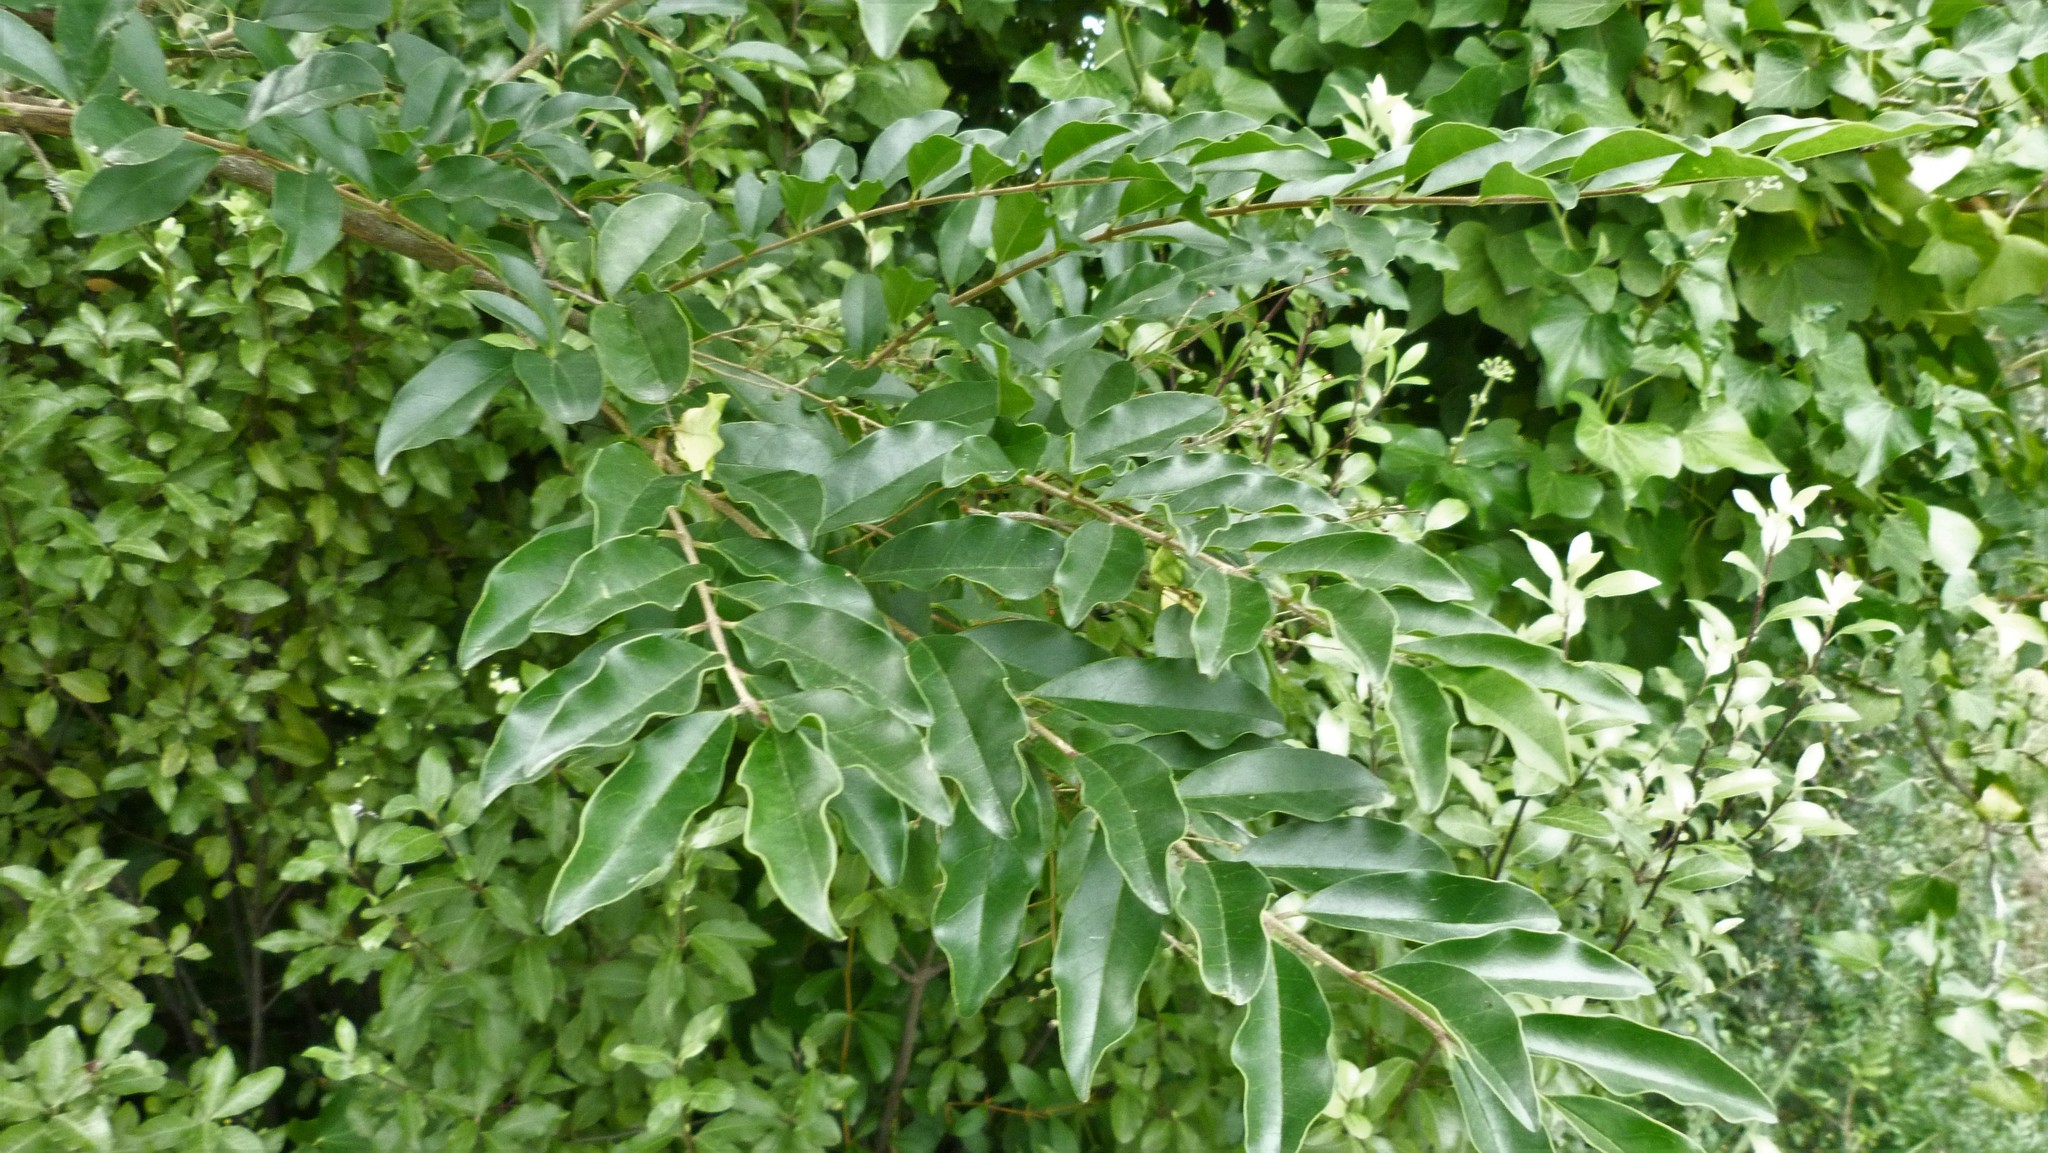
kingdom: Plantae
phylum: Tracheophyta
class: Magnoliopsida
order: Lamiales
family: Oleaceae
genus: Ligustrum
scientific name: Ligustrum sinense
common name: Chinese privet
